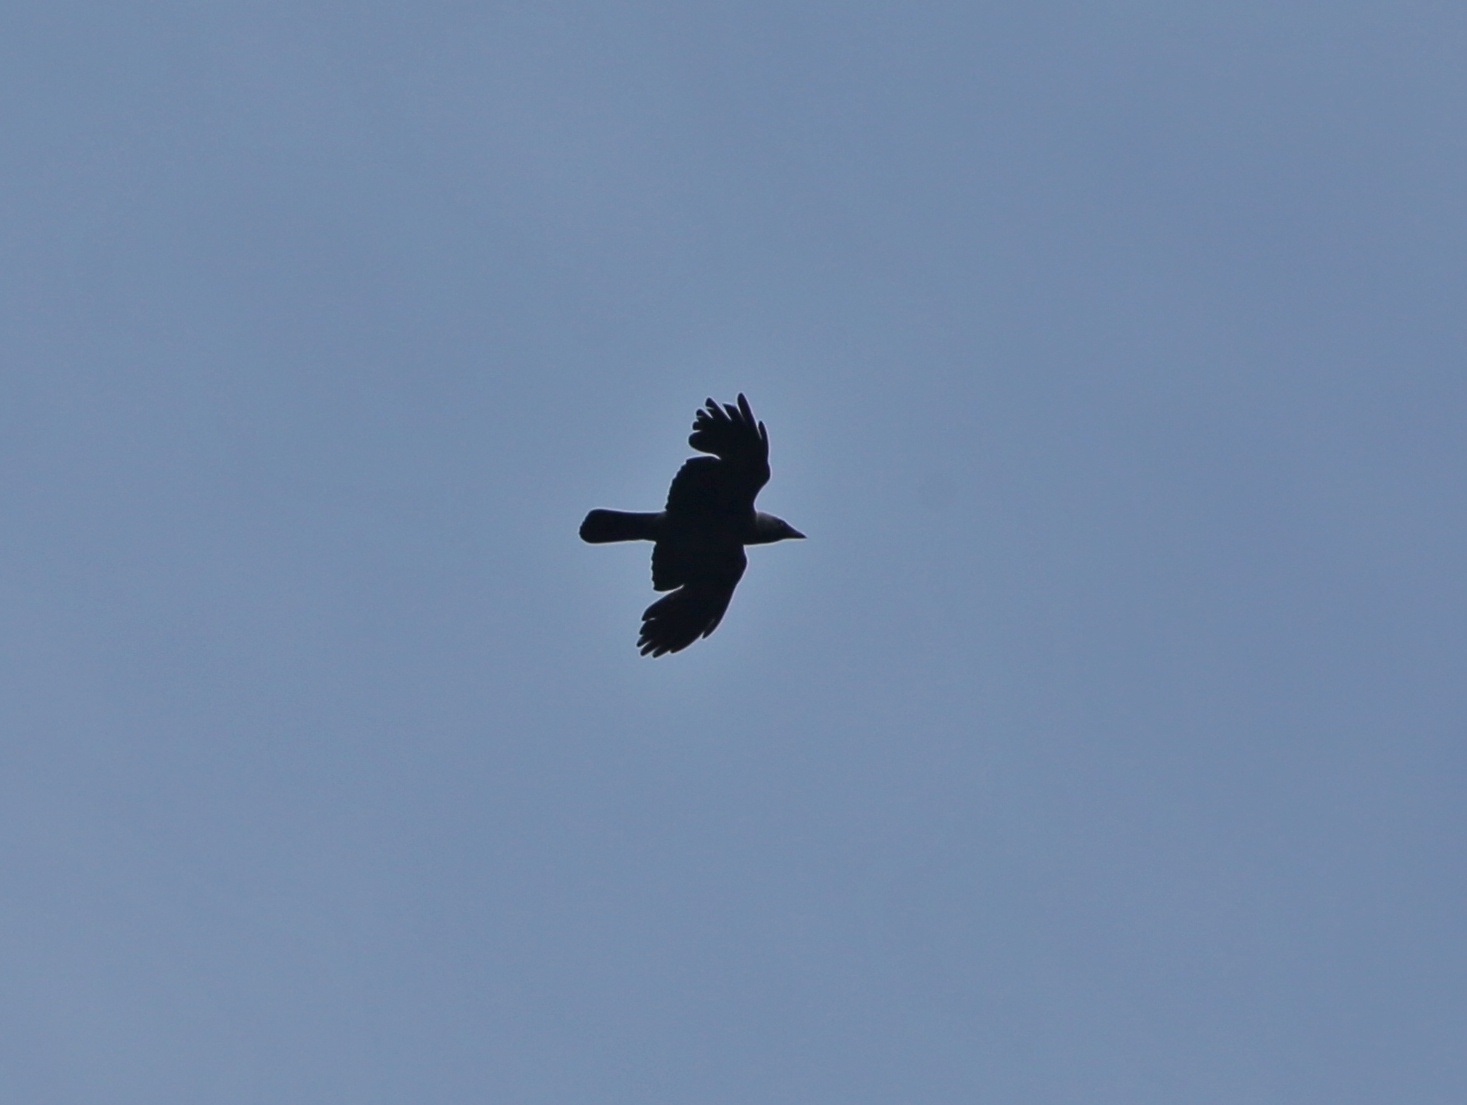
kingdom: Animalia
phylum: Chordata
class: Aves
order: Passeriformes
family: Corvidae
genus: Coloeus
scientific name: Coloeus monedula
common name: Western jackdaw
